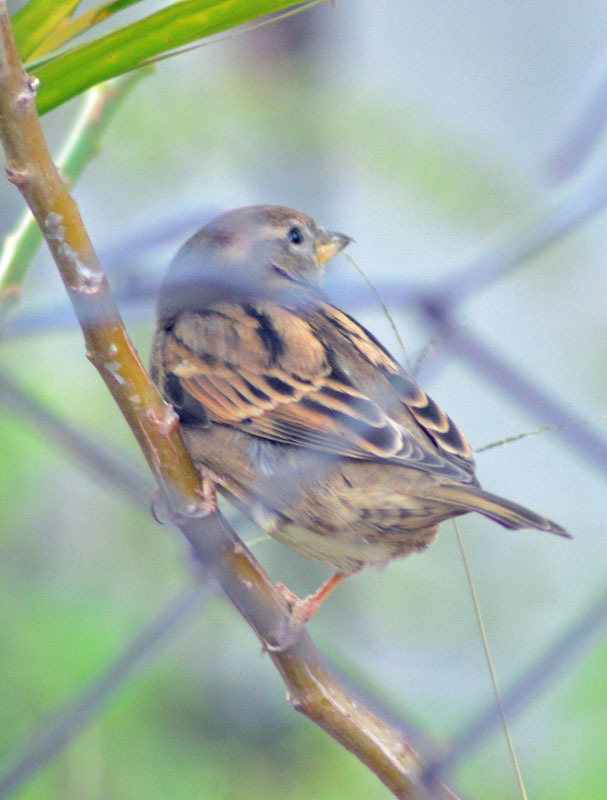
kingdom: Animalia
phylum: Chordata
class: Aves
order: Passeriformes
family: Passeridae
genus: Passer
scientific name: Passer domesticus
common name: House sparrow
